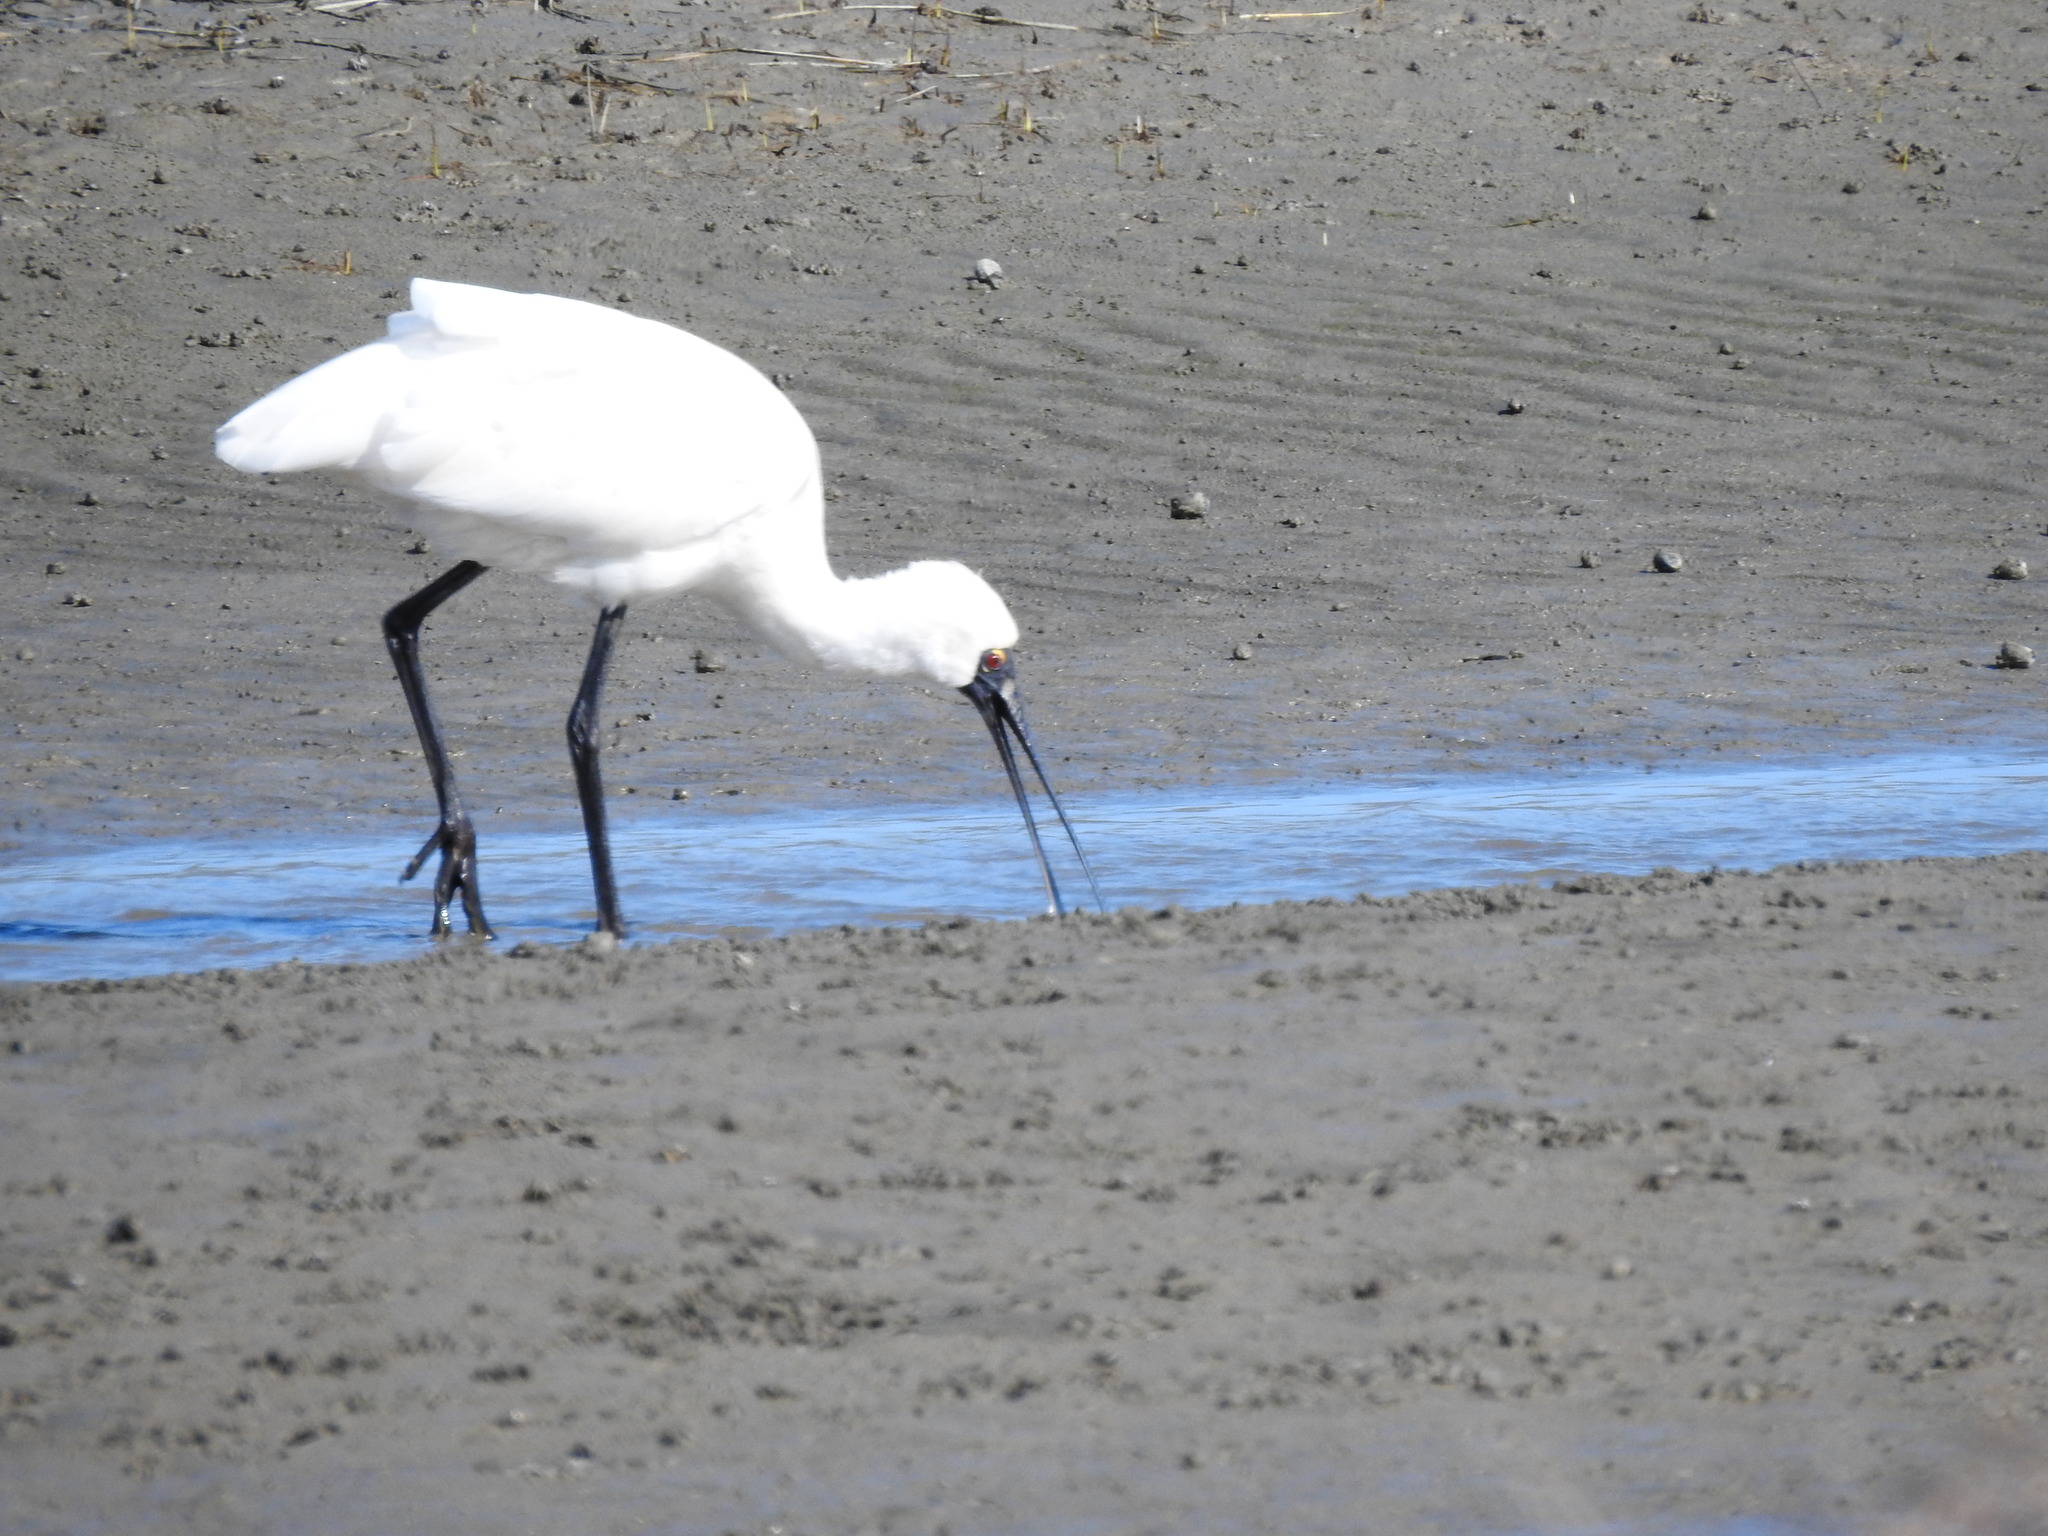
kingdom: Animalia
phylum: Chordata
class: Aves
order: Pelecaniformes
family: Threskiornithidae
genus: Platalea
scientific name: Platalea regia
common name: Royal spoonbill
